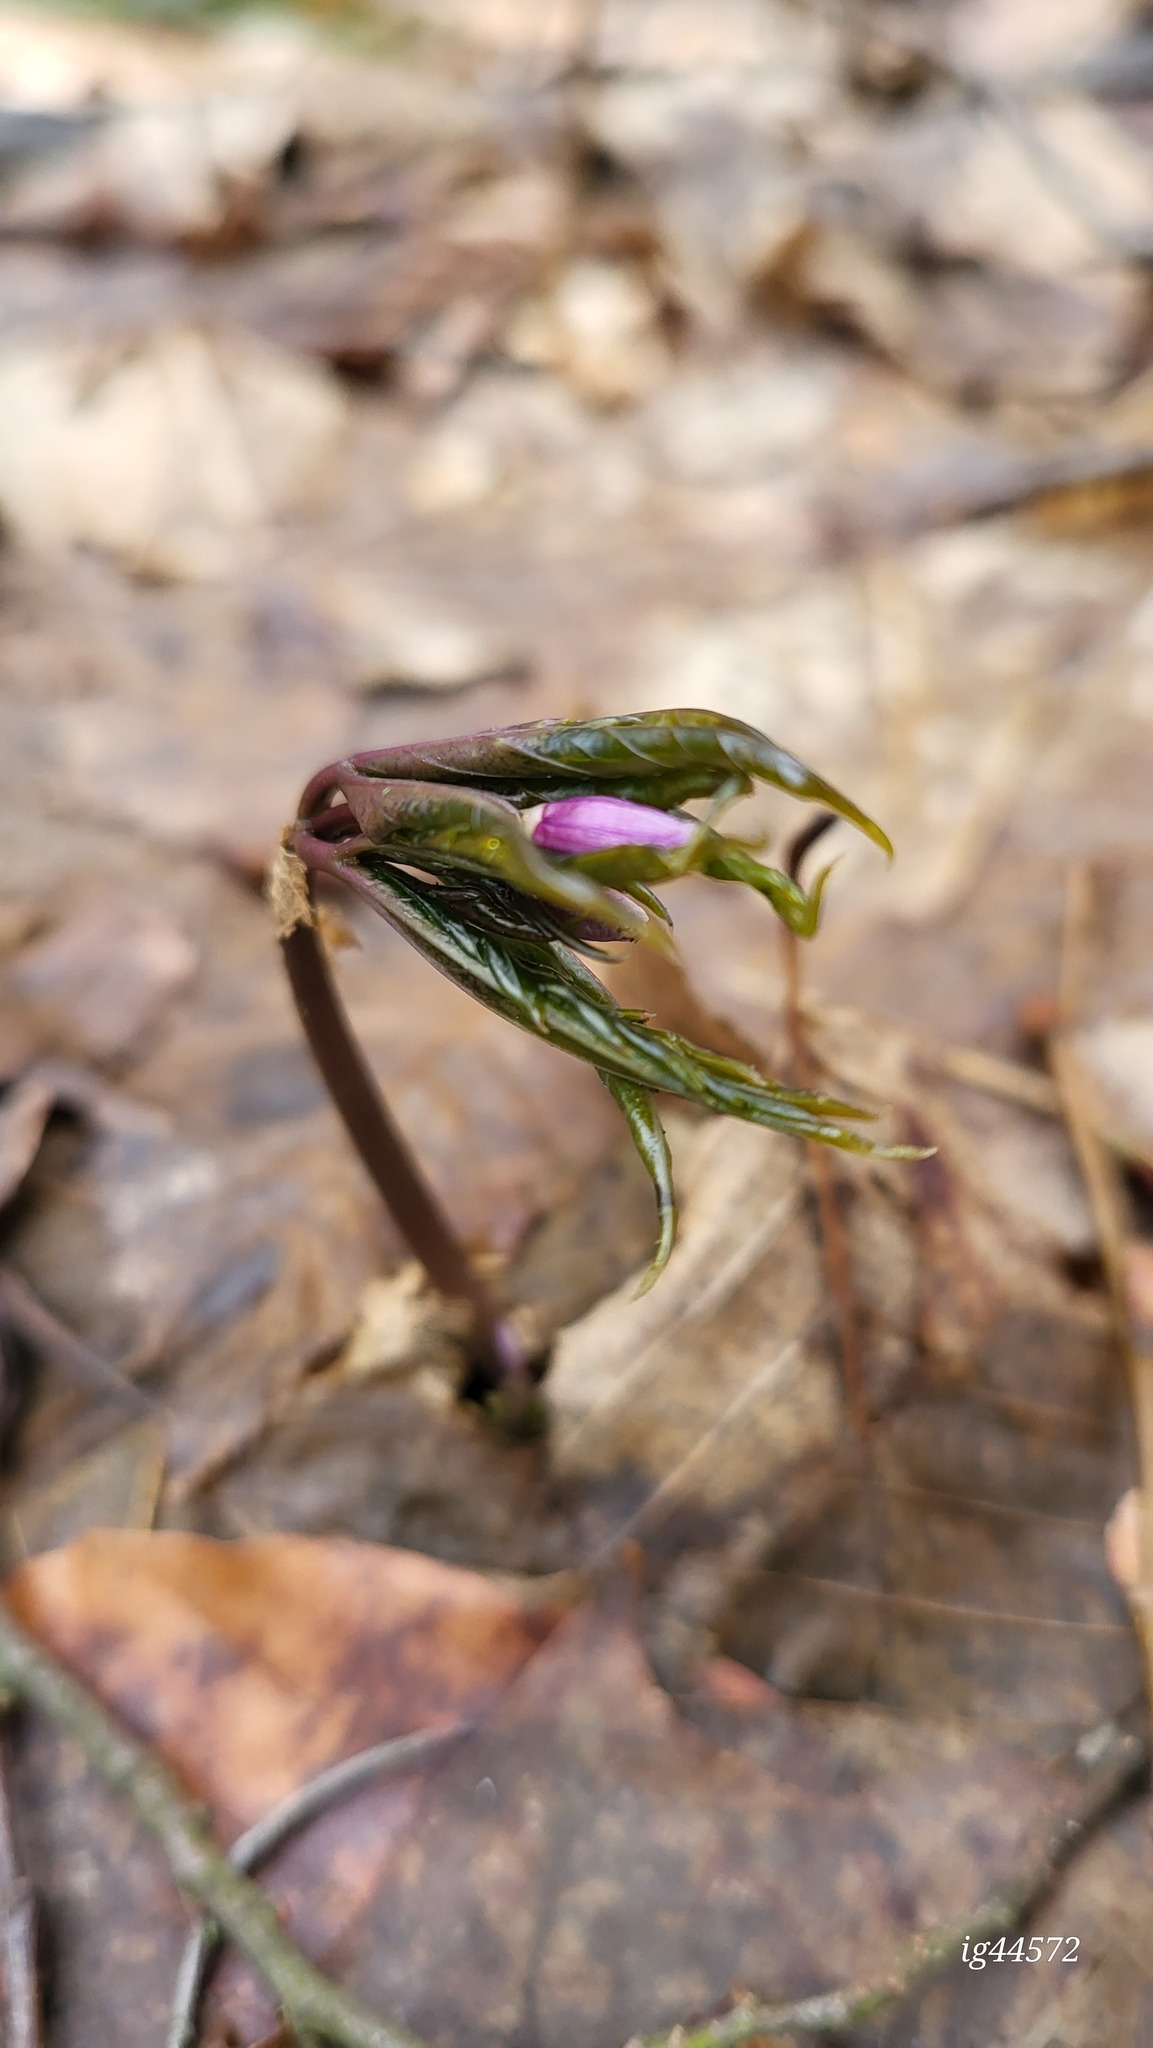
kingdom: Plantae
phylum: Tracheophyta
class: Magnoliopsida
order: Brassicales
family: Brassicaceae
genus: Cardamine
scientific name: Cardamine glanduligera
